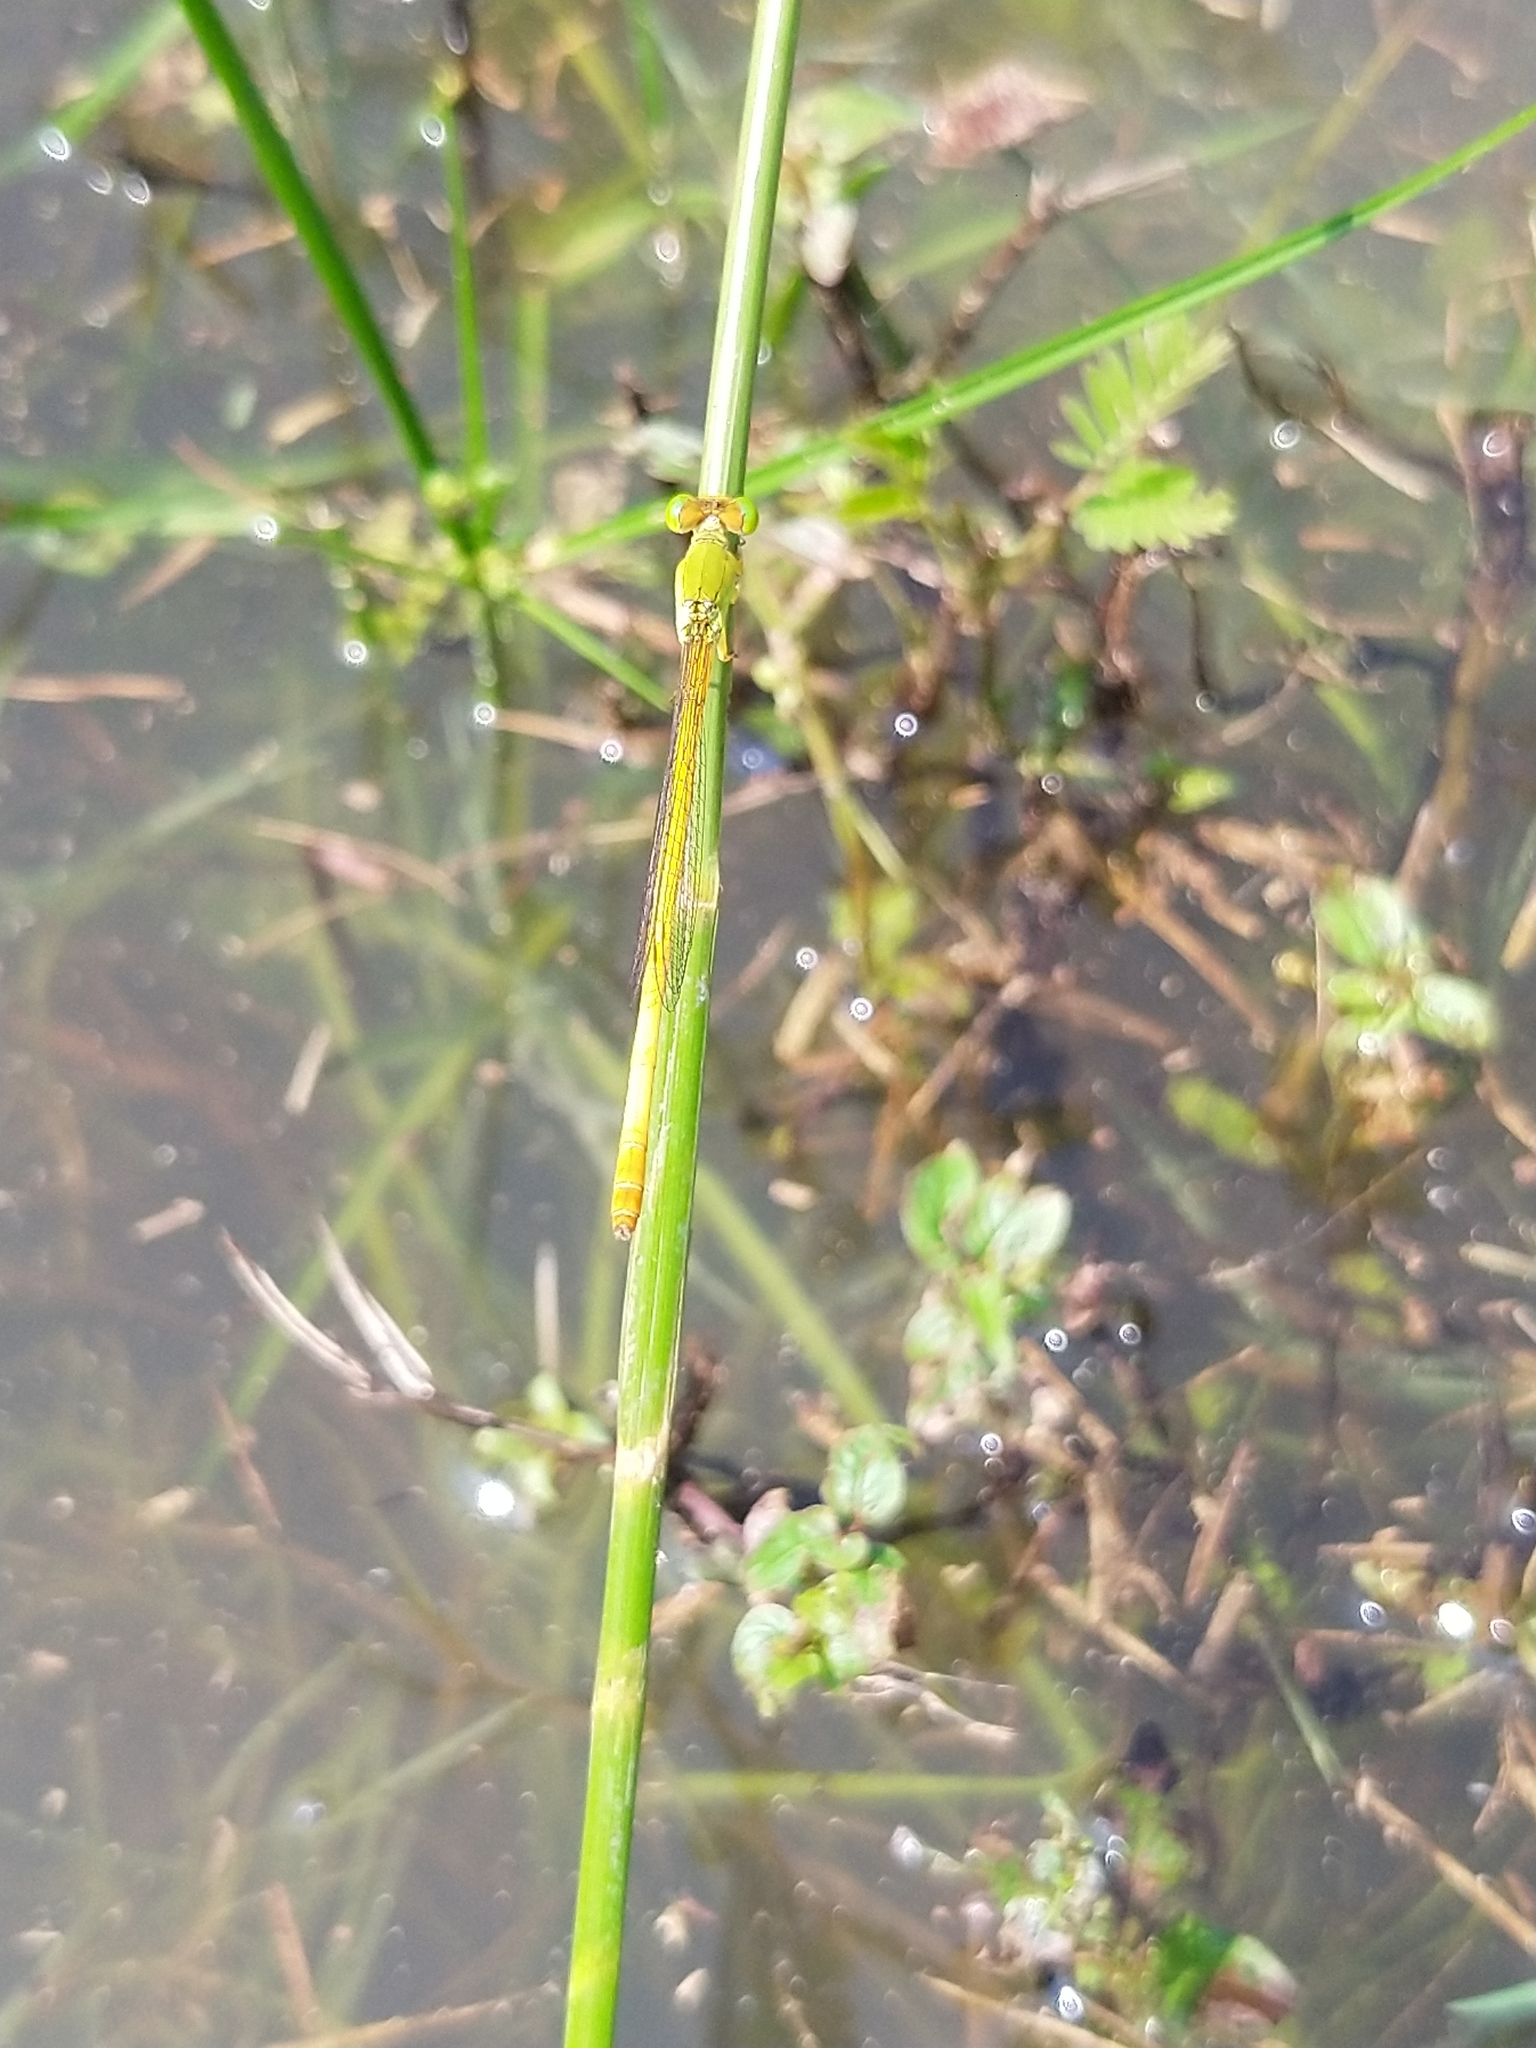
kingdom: Animalia
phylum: Arthropoda
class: Insecta
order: Odonata
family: Coenagrionidae
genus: Ceriagrion
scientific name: Ceriagrion coromandelianum
